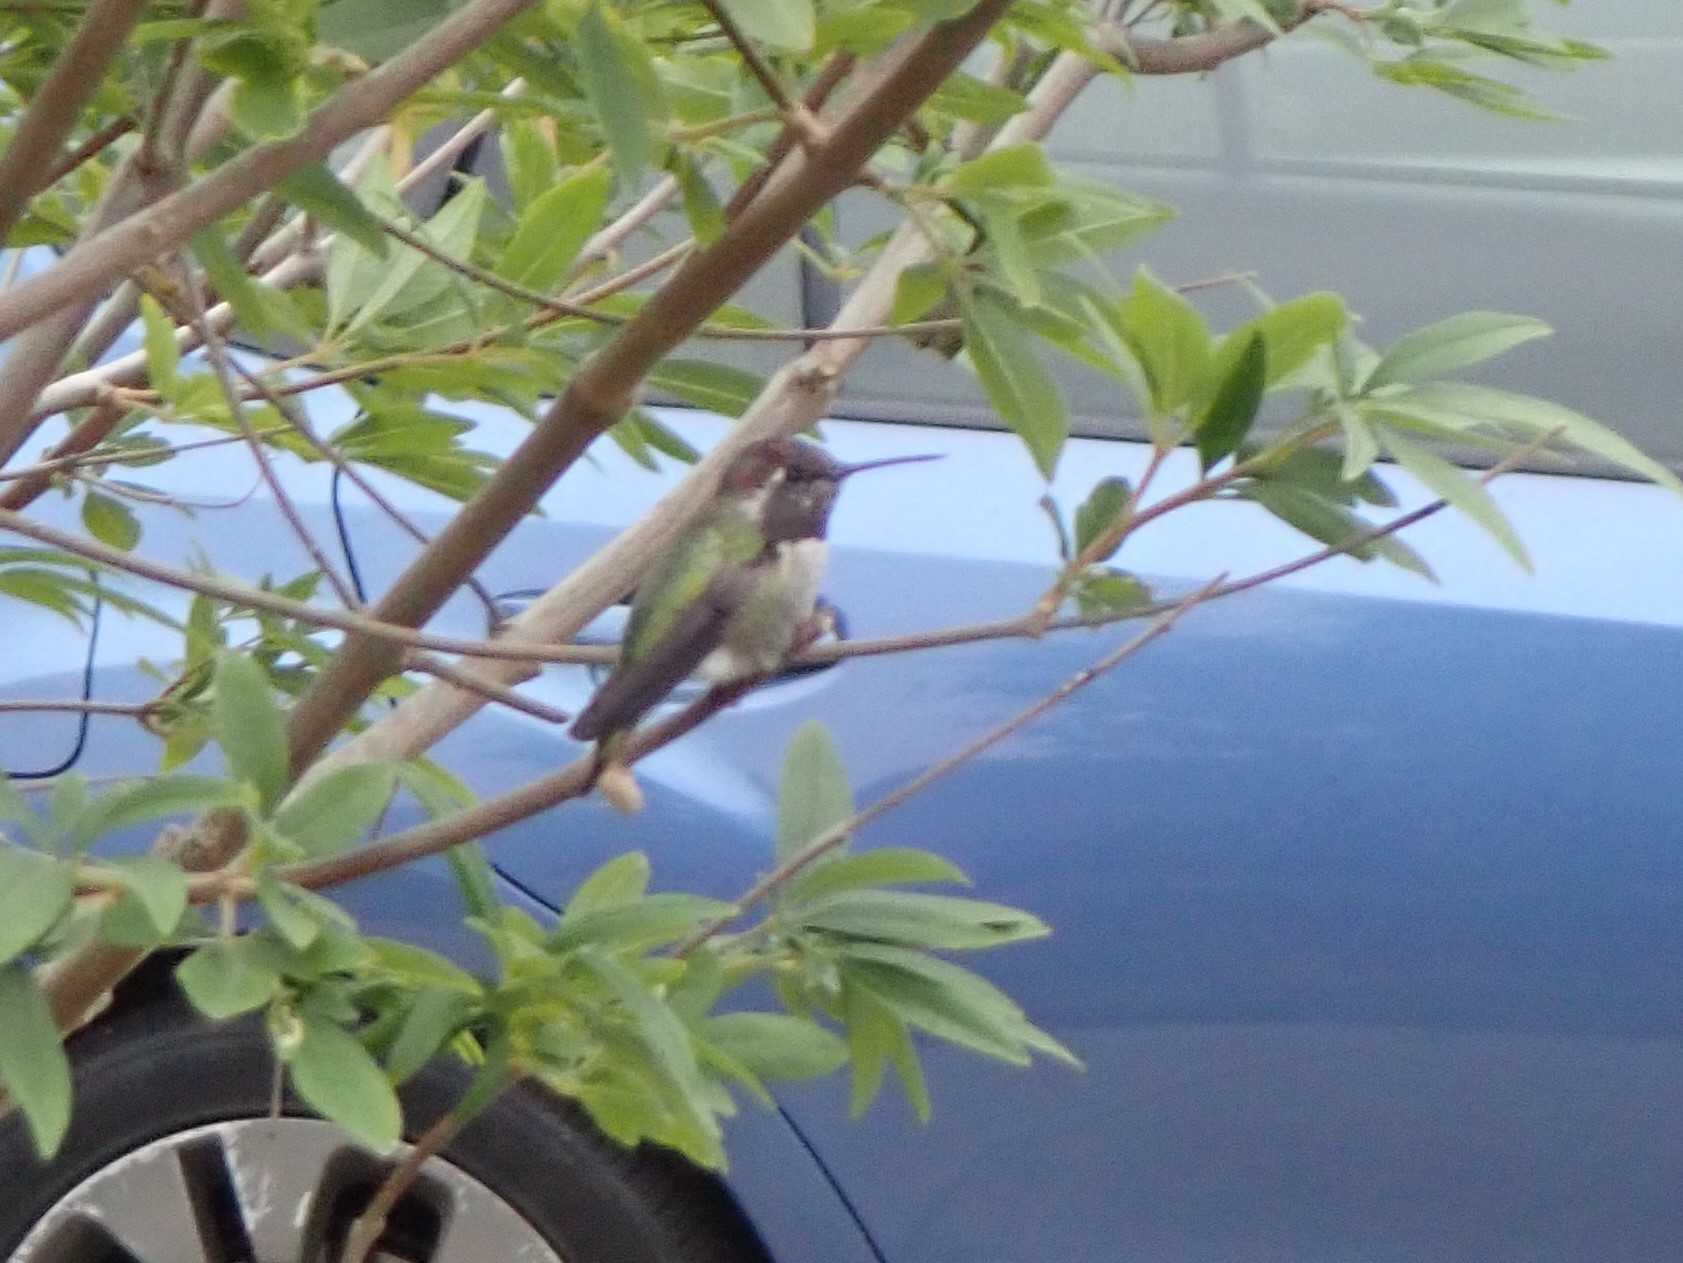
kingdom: Animalia
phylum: Chordata
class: Aves
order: Apodiformes
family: Trochilidae
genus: Calypte
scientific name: Calypte anna
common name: Anna's hummingbird
